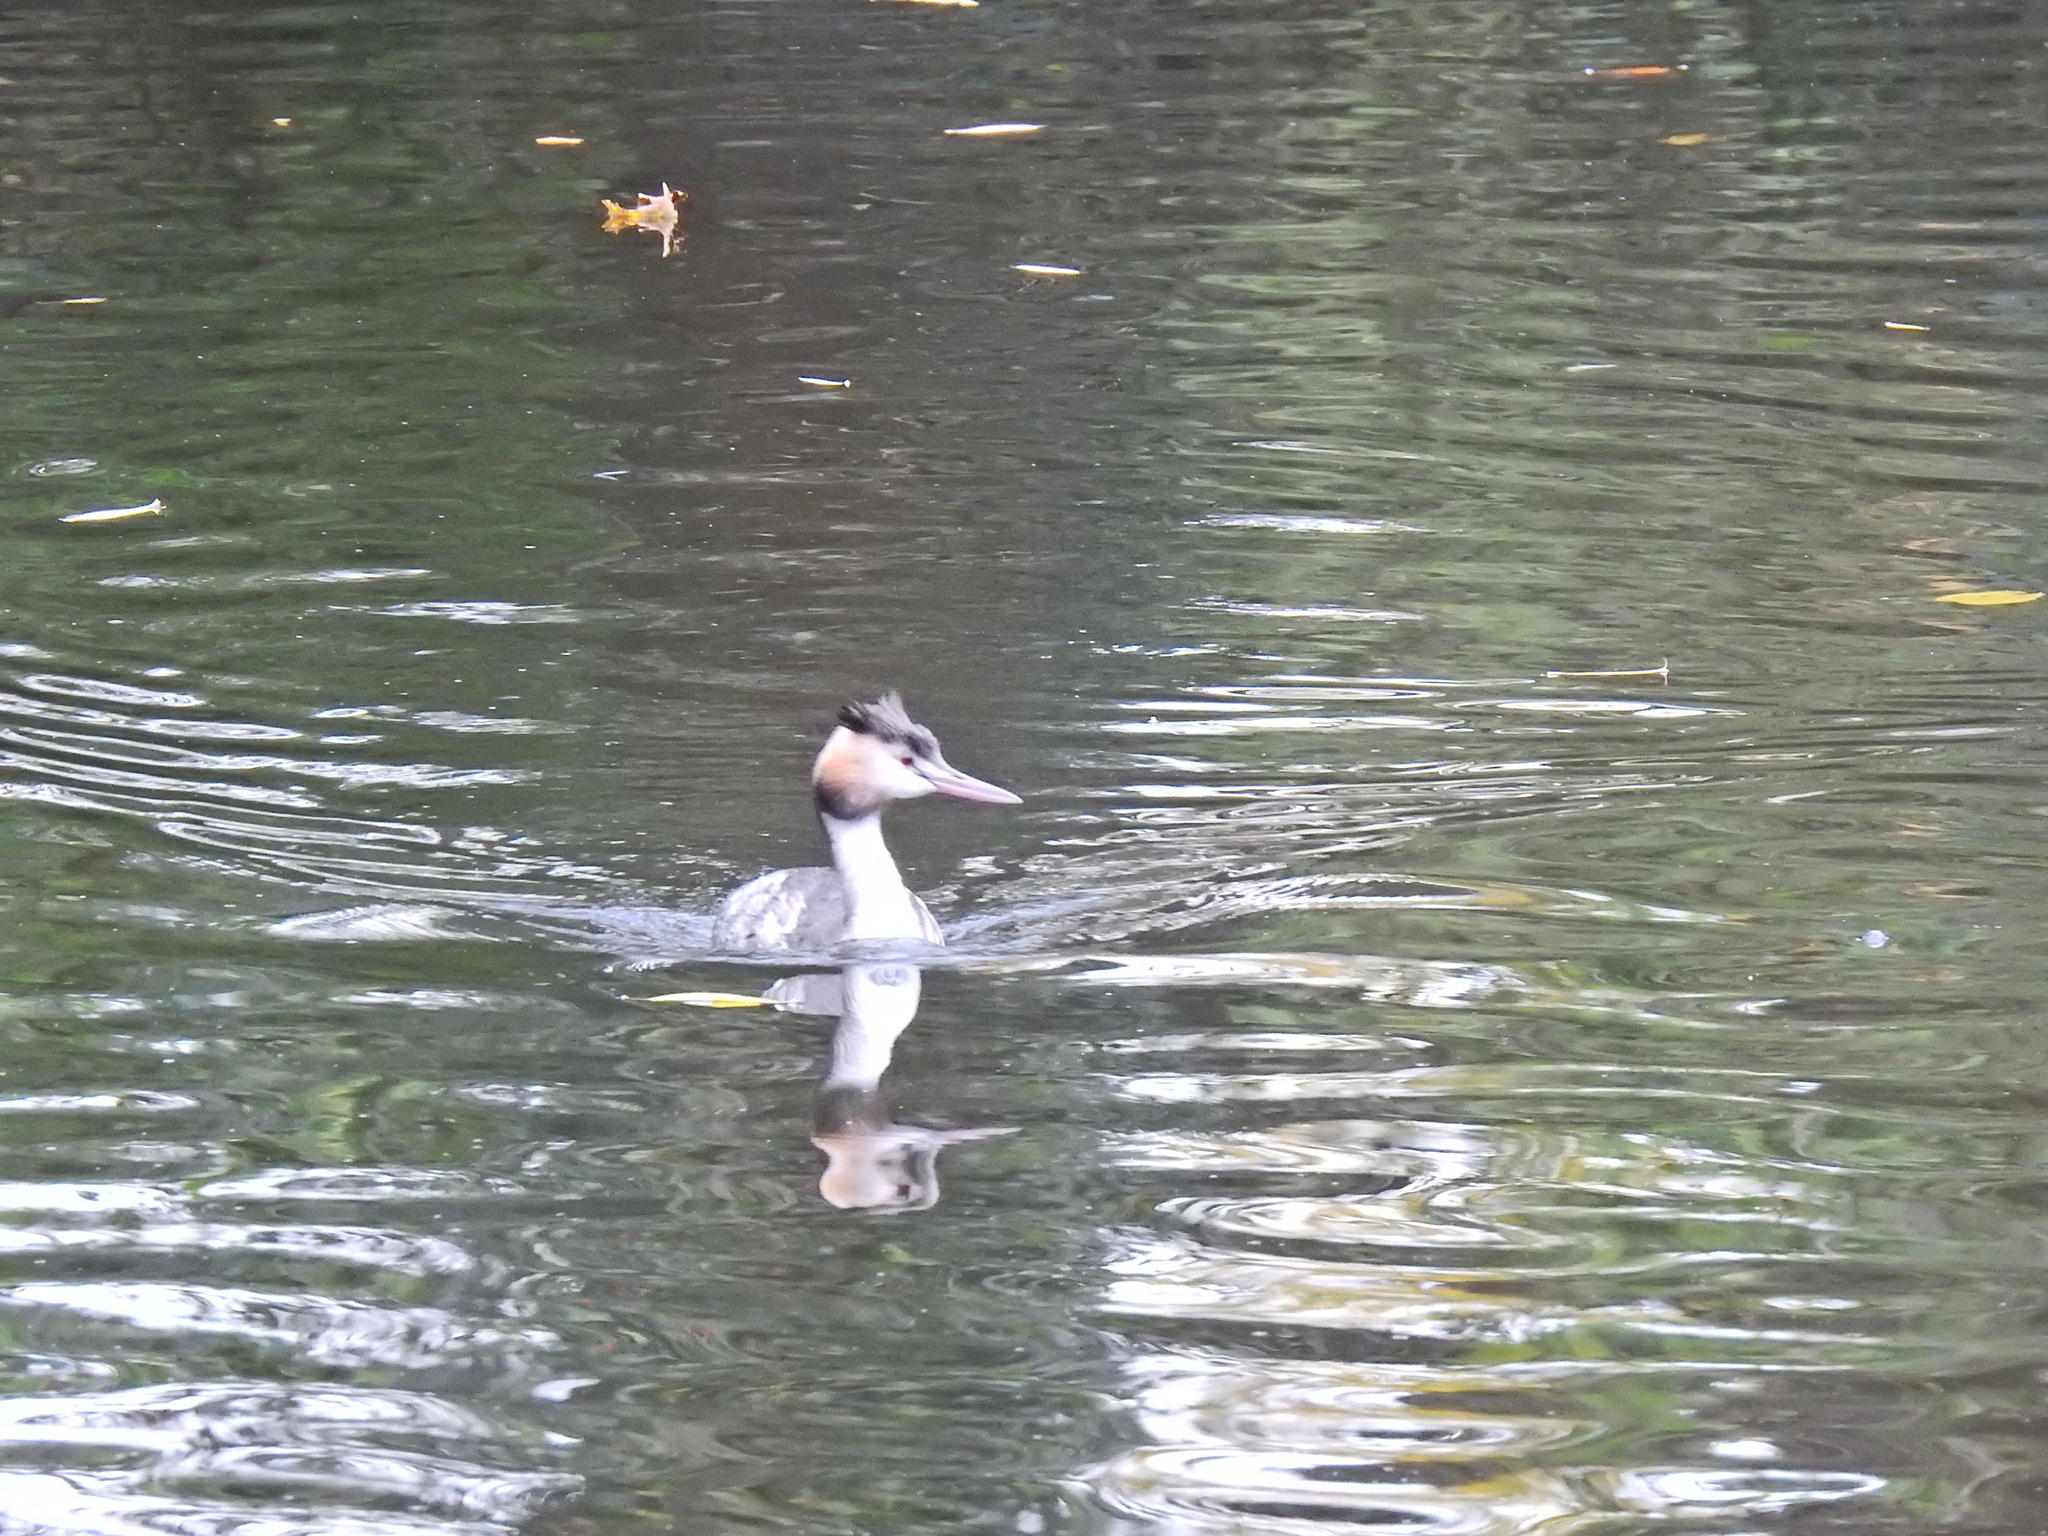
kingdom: Animalia
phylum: Chordata
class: Aves
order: Podicipediformes
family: Podicipedidae
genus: Podiceps
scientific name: Podiceps cristatus
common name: Great crested grebe
